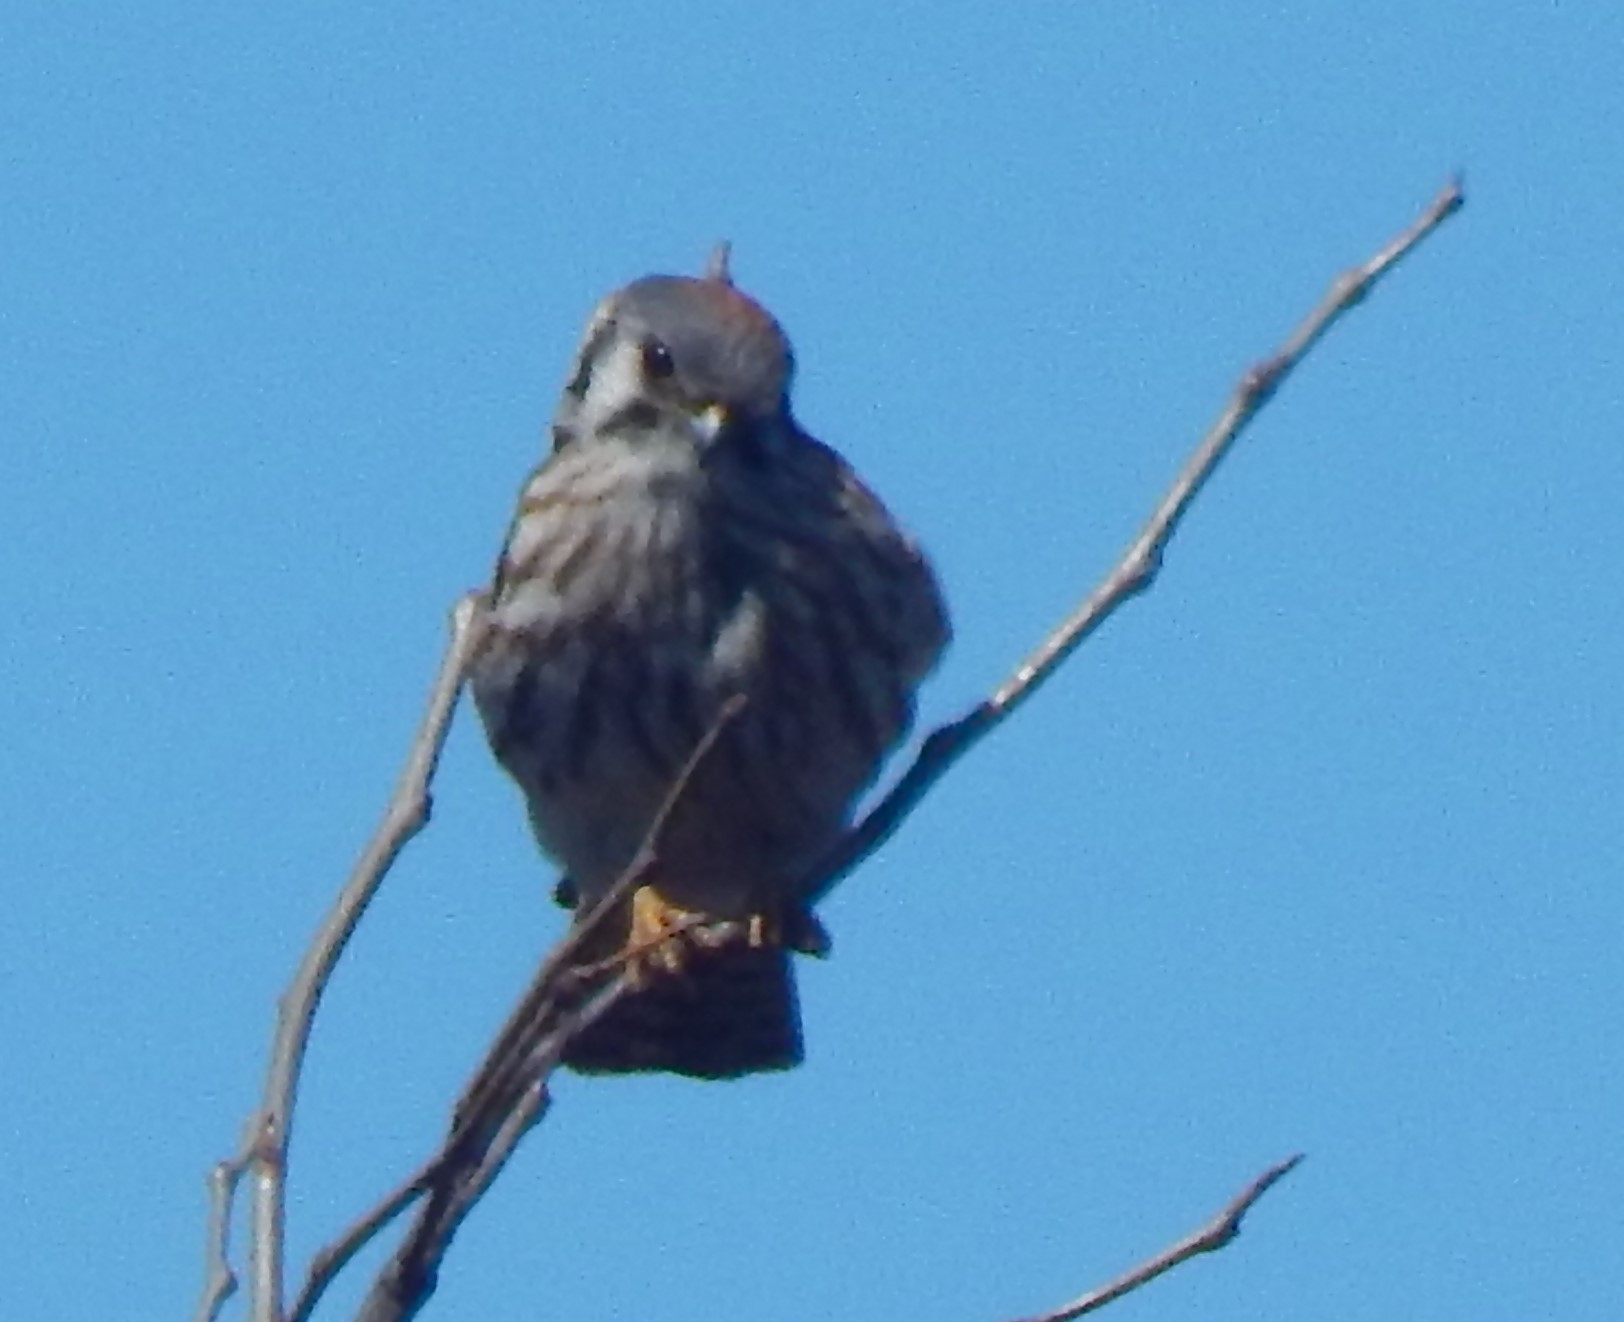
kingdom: Animalia
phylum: Chordata
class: Aves
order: Falconiformes
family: Falconidae
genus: Falco
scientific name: Falco sparverius
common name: American kestrel
